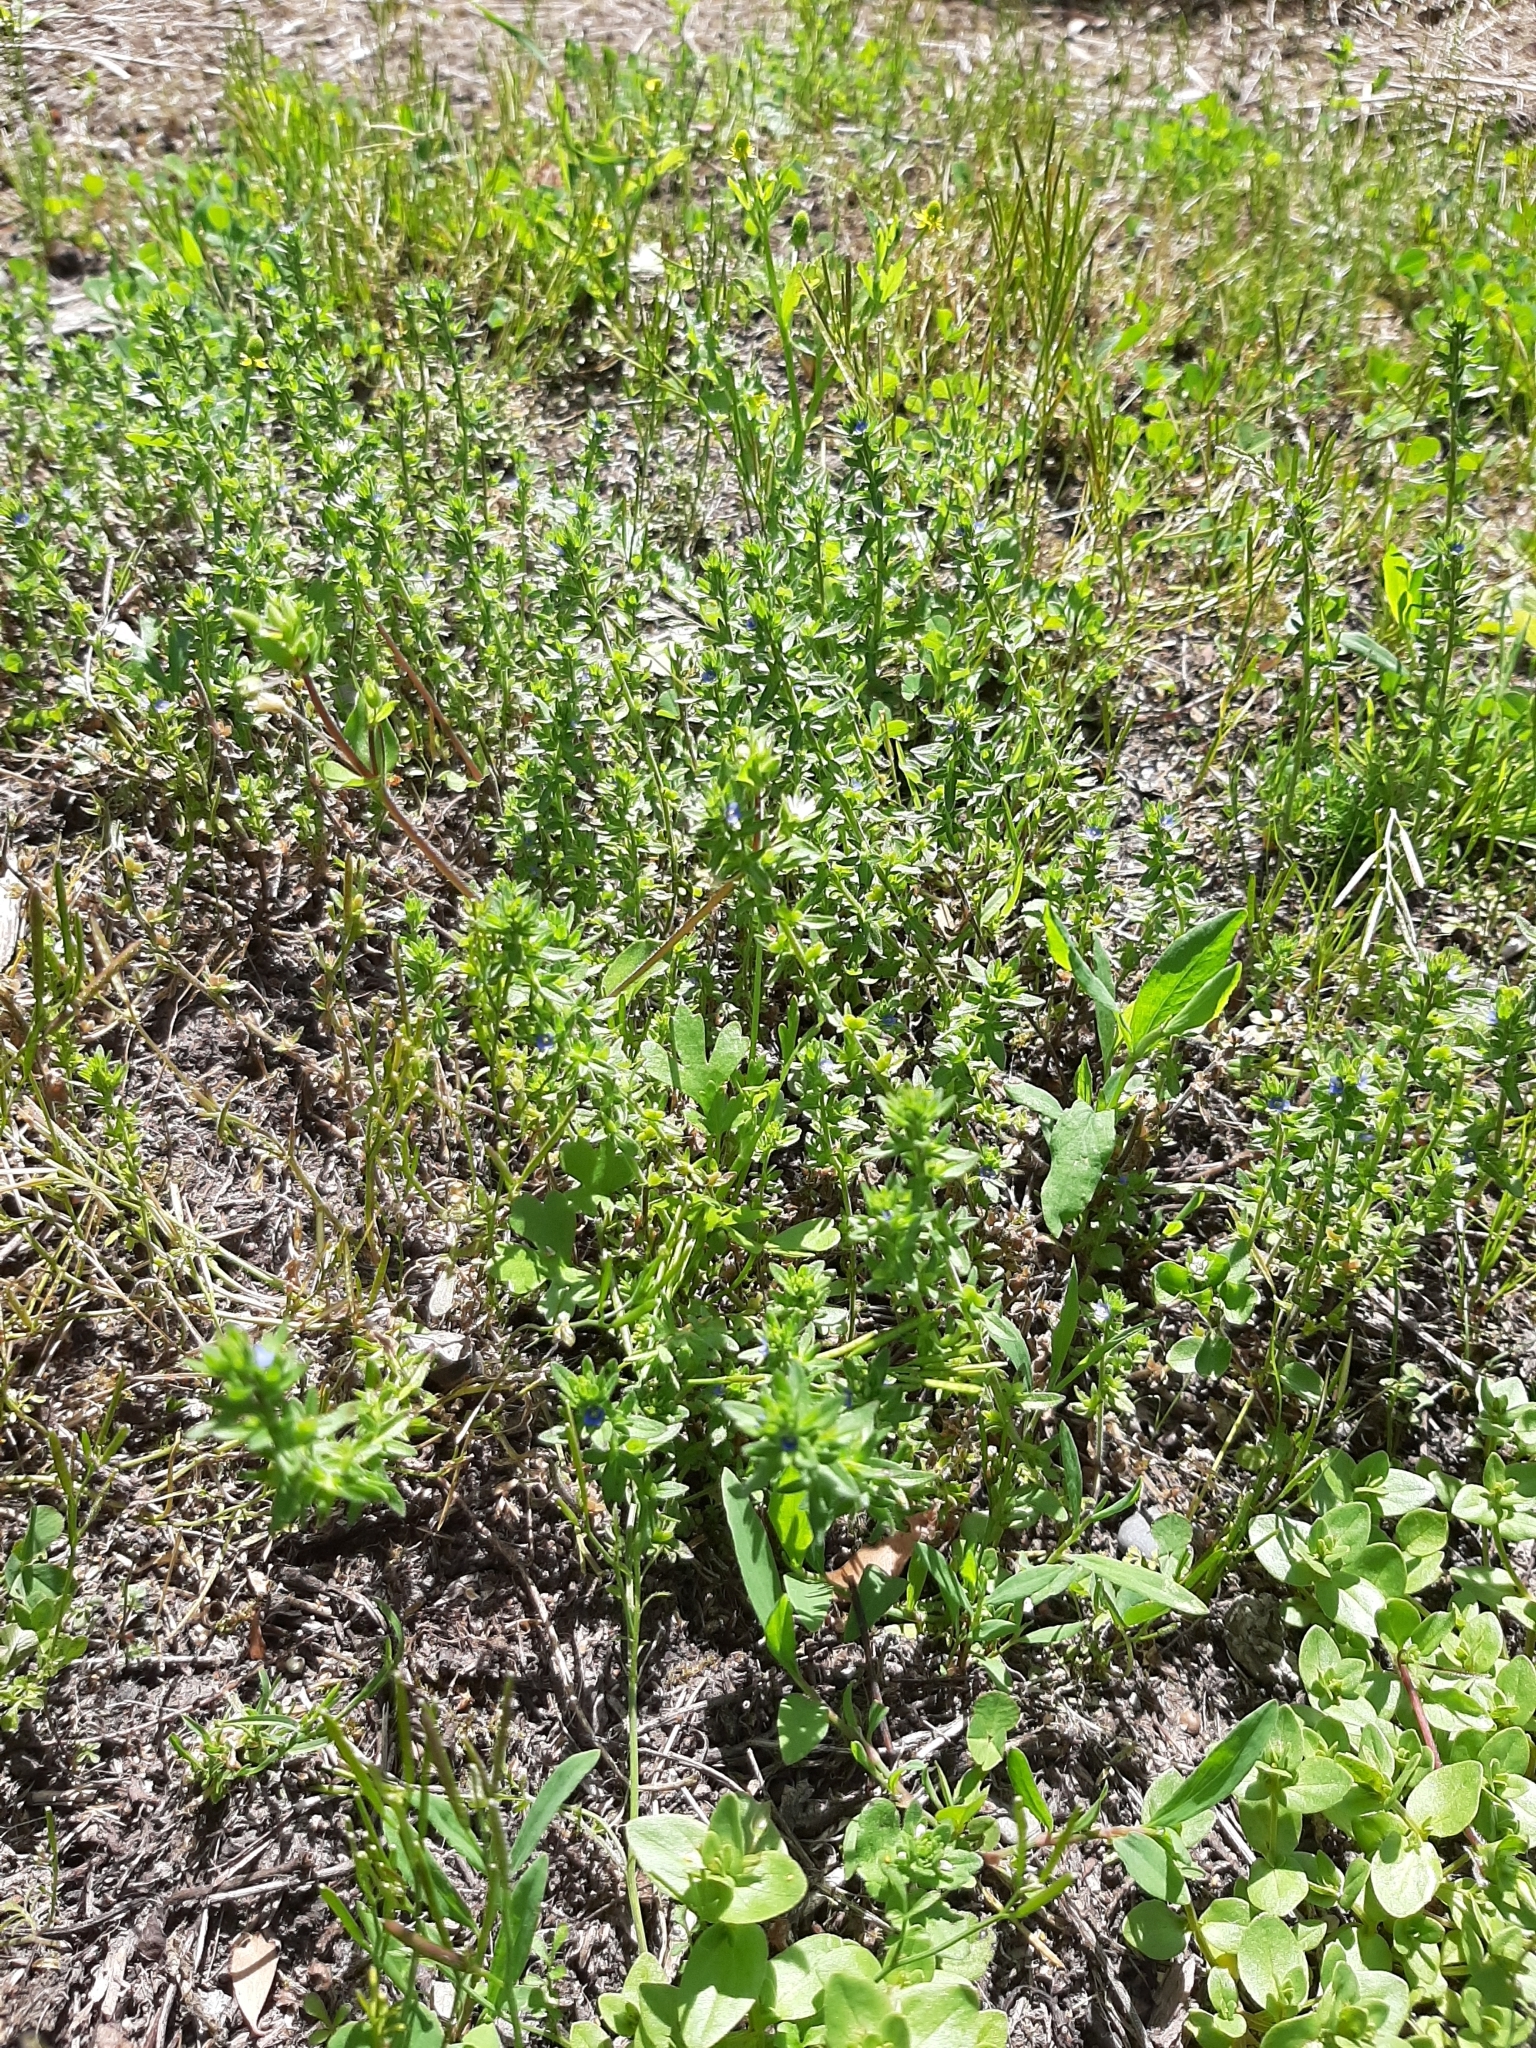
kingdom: Plantae
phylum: Tracheophyta
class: Magnoliopsida
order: Lamiales
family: Plantaginaceae
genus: Veronica
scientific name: Veronica arvensis
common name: Corn speedwell
